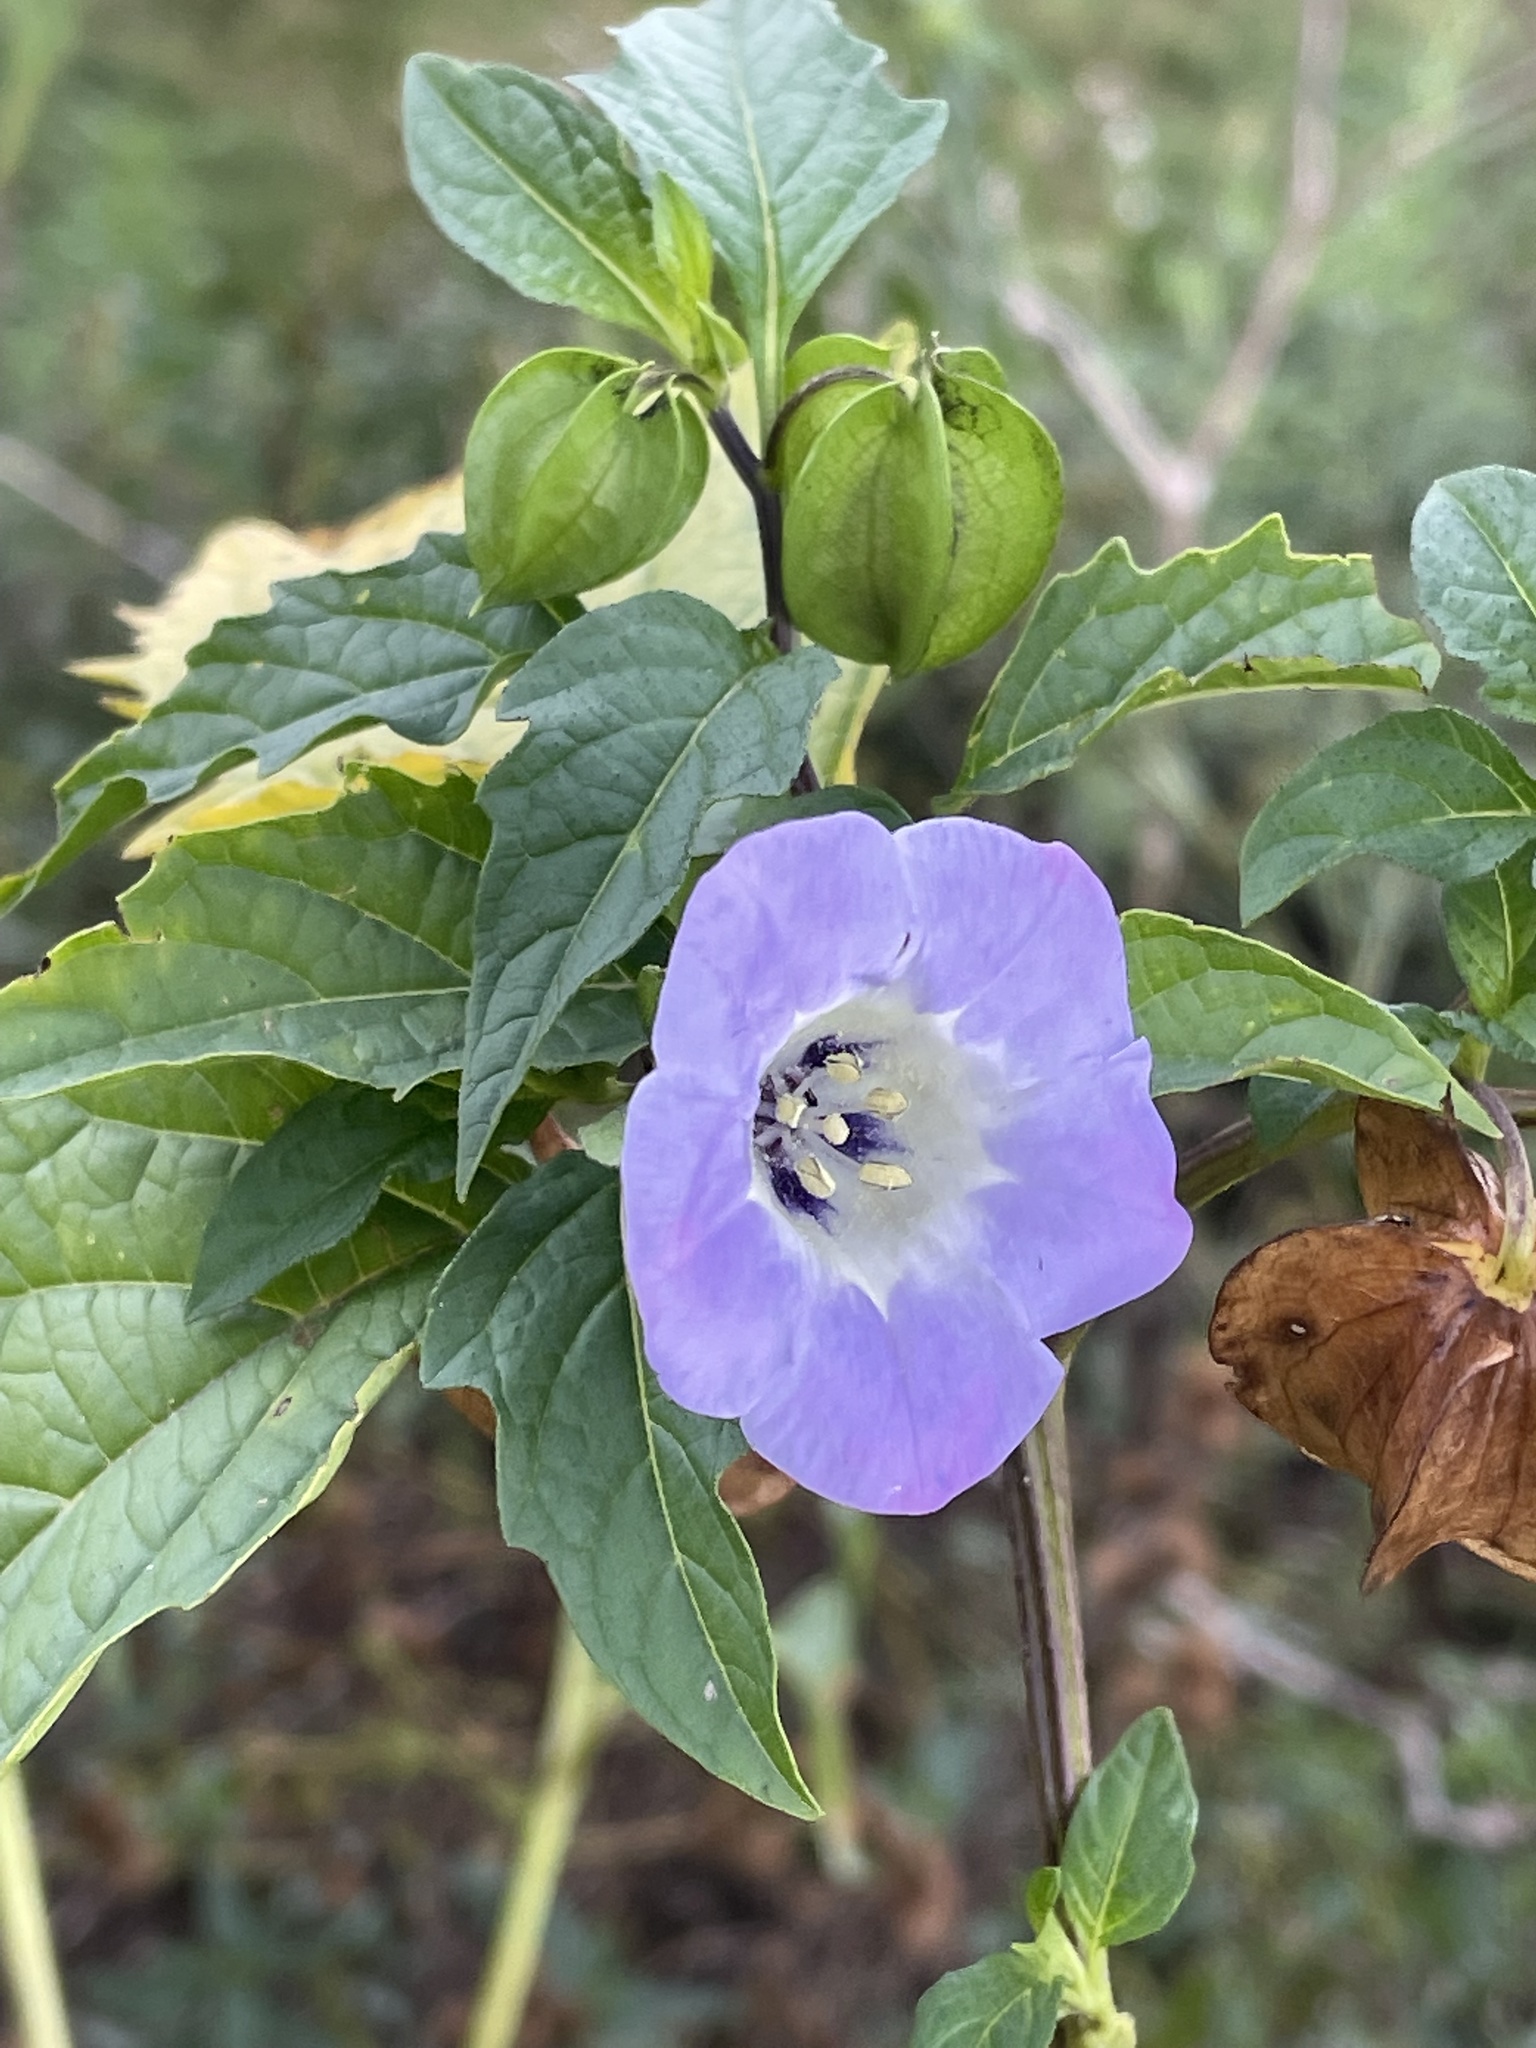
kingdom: Plantae
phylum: Tracheophyta
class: Magnoliopsida
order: Solanales
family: Solanaceae
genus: Nicandra
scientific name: Nicandra physalodes
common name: Apple-of-peru
